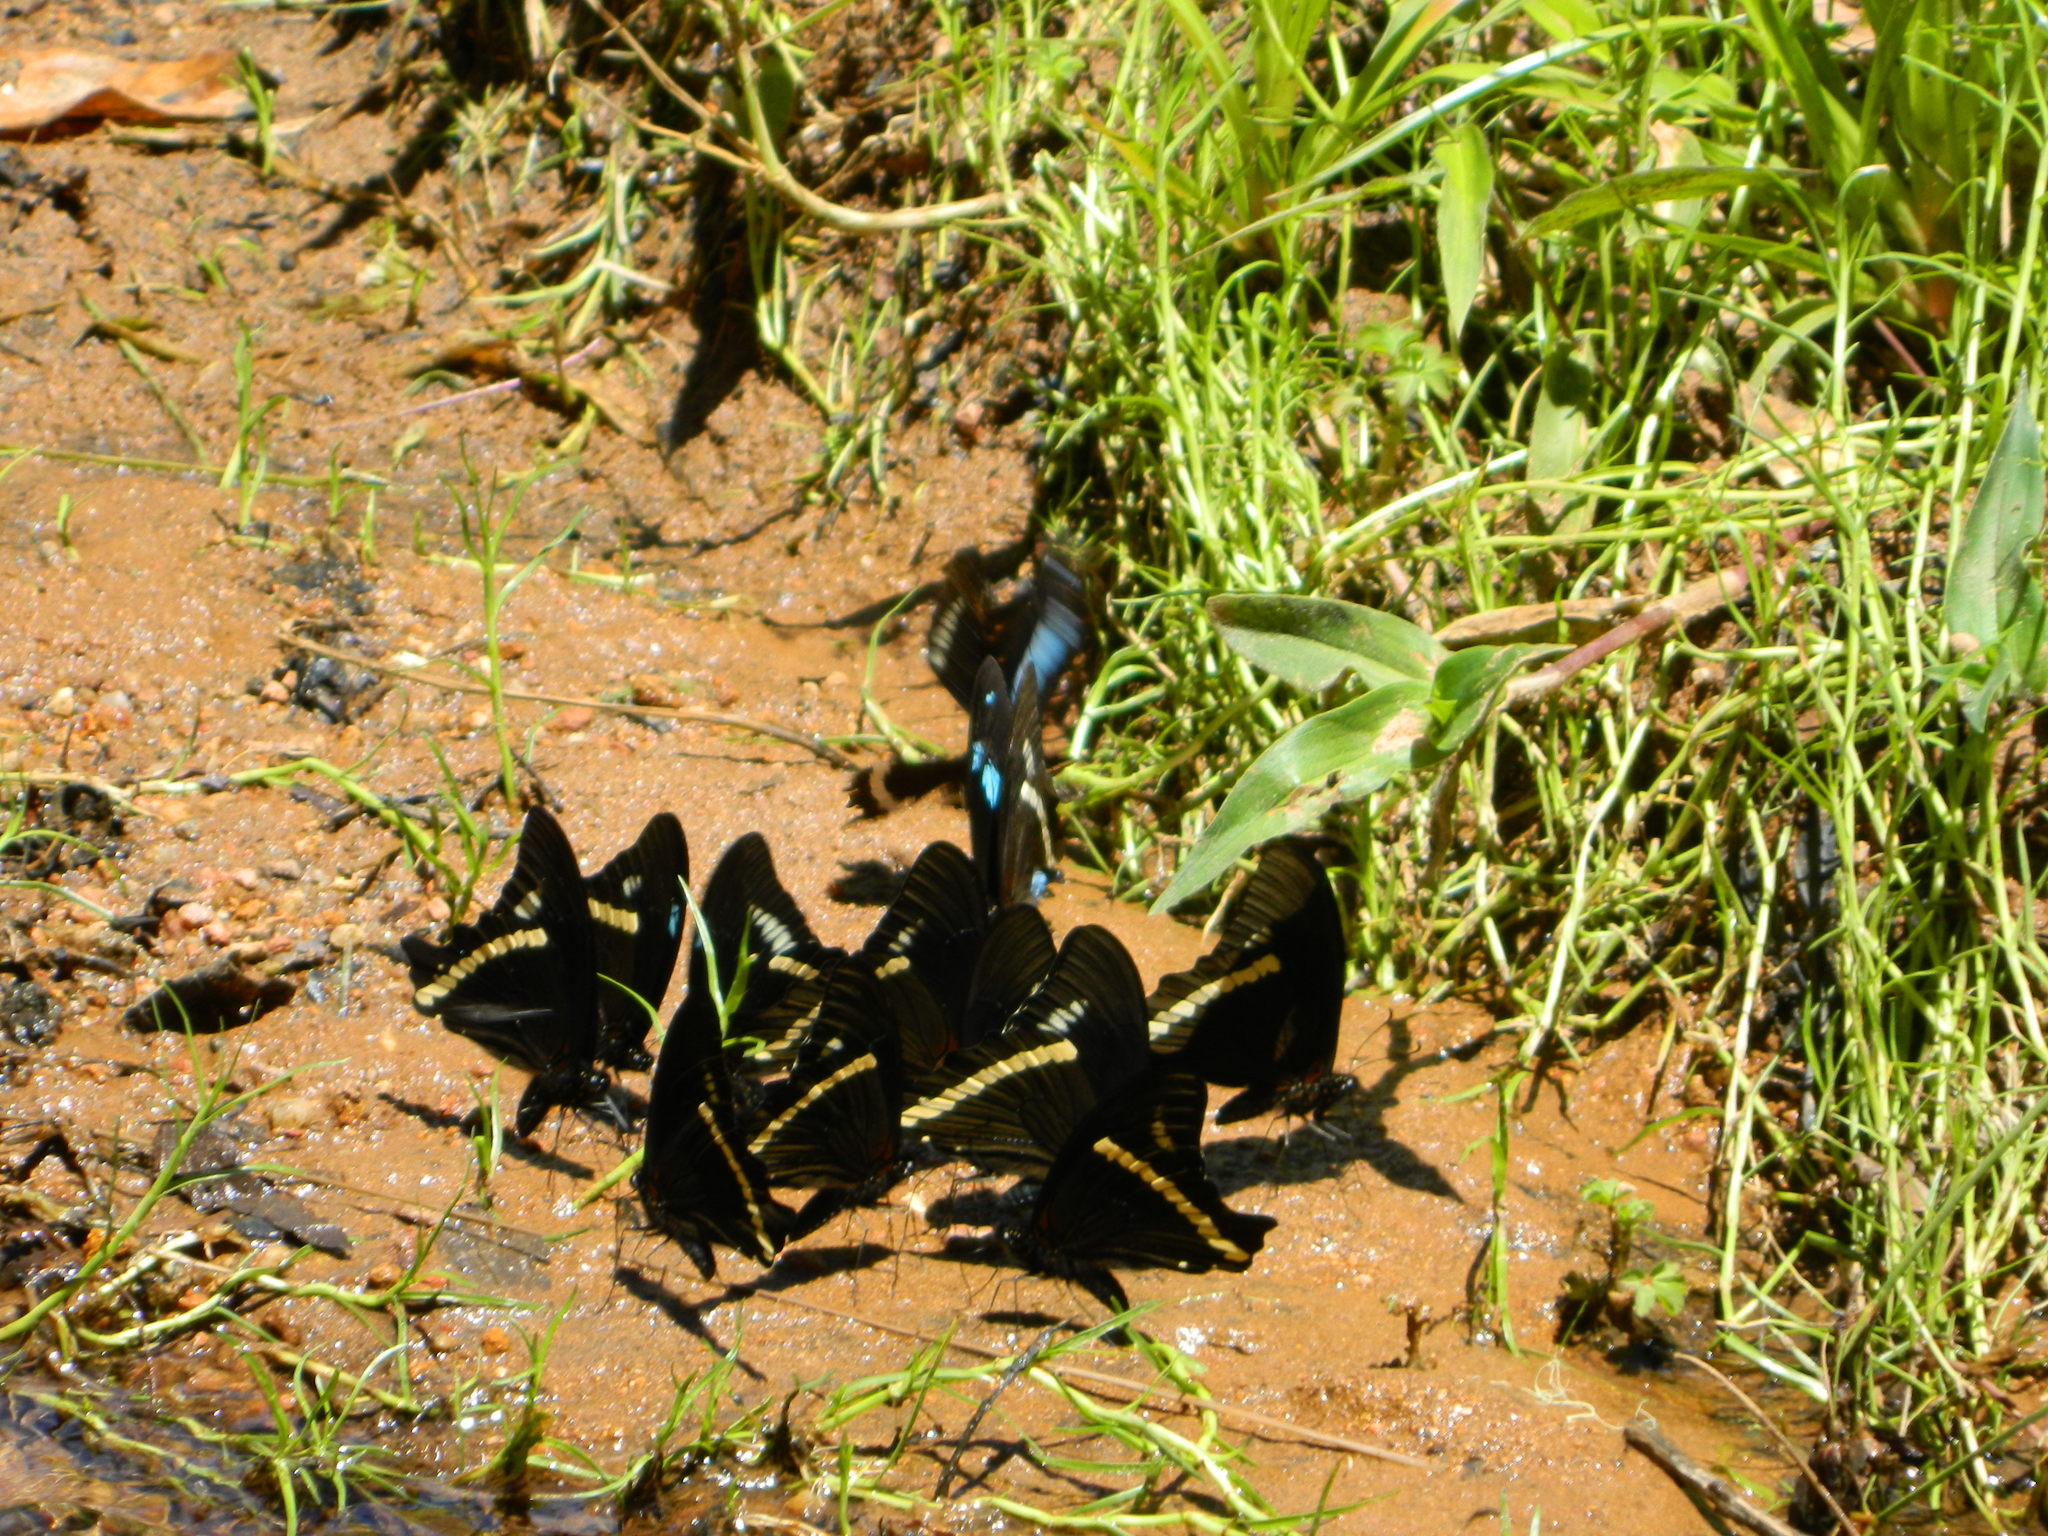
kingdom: Animalia
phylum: Arthropoda
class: Insecta
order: Lepidoptera
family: Papilionidae
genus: Papilio
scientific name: Papilio desmondi
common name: Desmond's green-banded swallowtail
